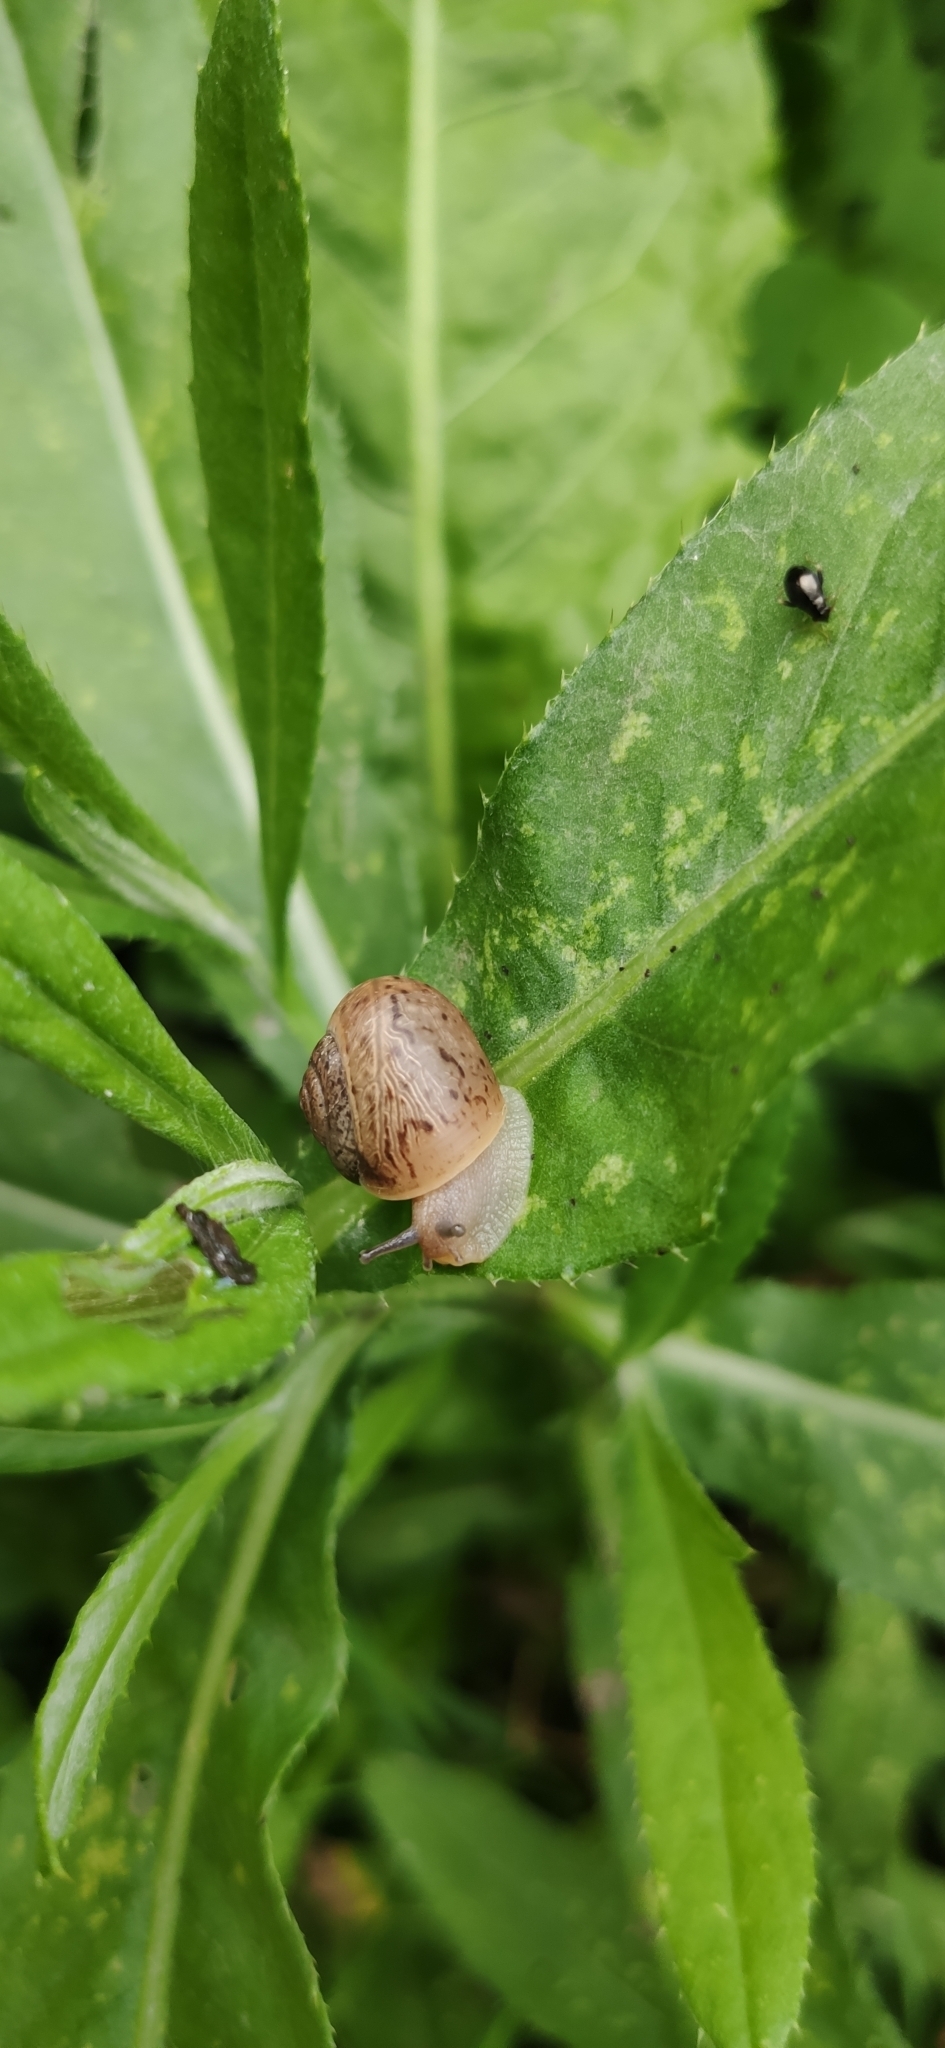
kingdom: Animalia
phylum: Mollusca
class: Gastropoda
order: Stylommatophora
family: Camaenidae
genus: Fruticicola
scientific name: Fruticicola fruticum
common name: Bush snail
